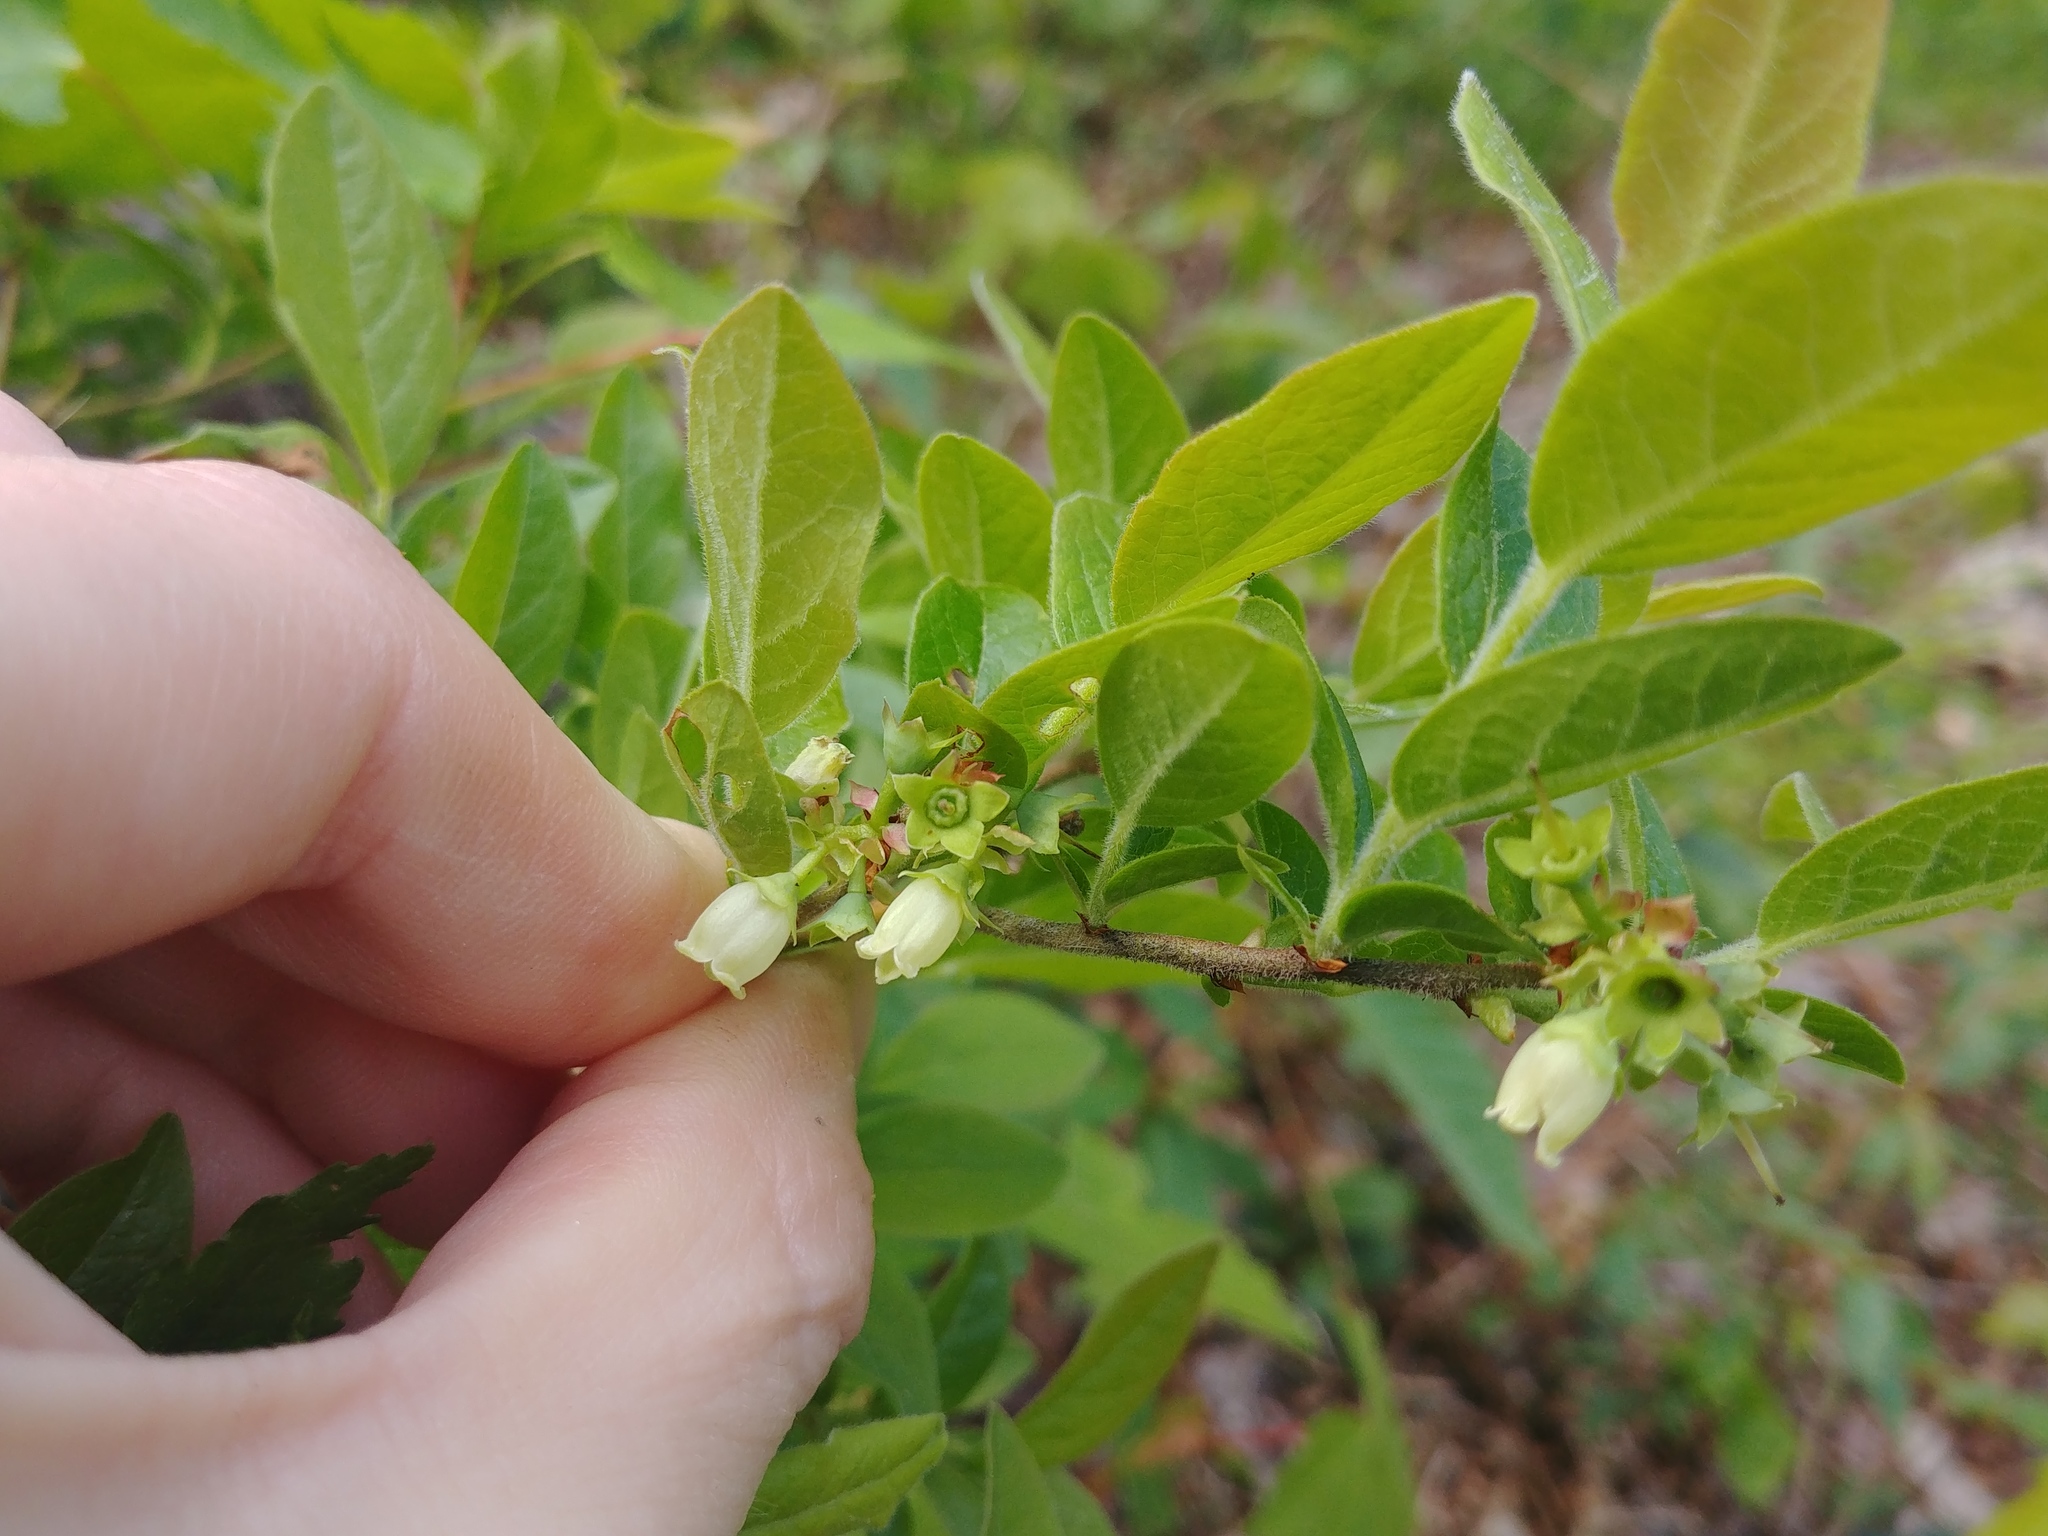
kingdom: Plantae
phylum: Tracheophyta
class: Magnoliopsida
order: Ericales
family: Ericaceae
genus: Vaccinium
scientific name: Vaccinium myrtilloides
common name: Canada blueberry
